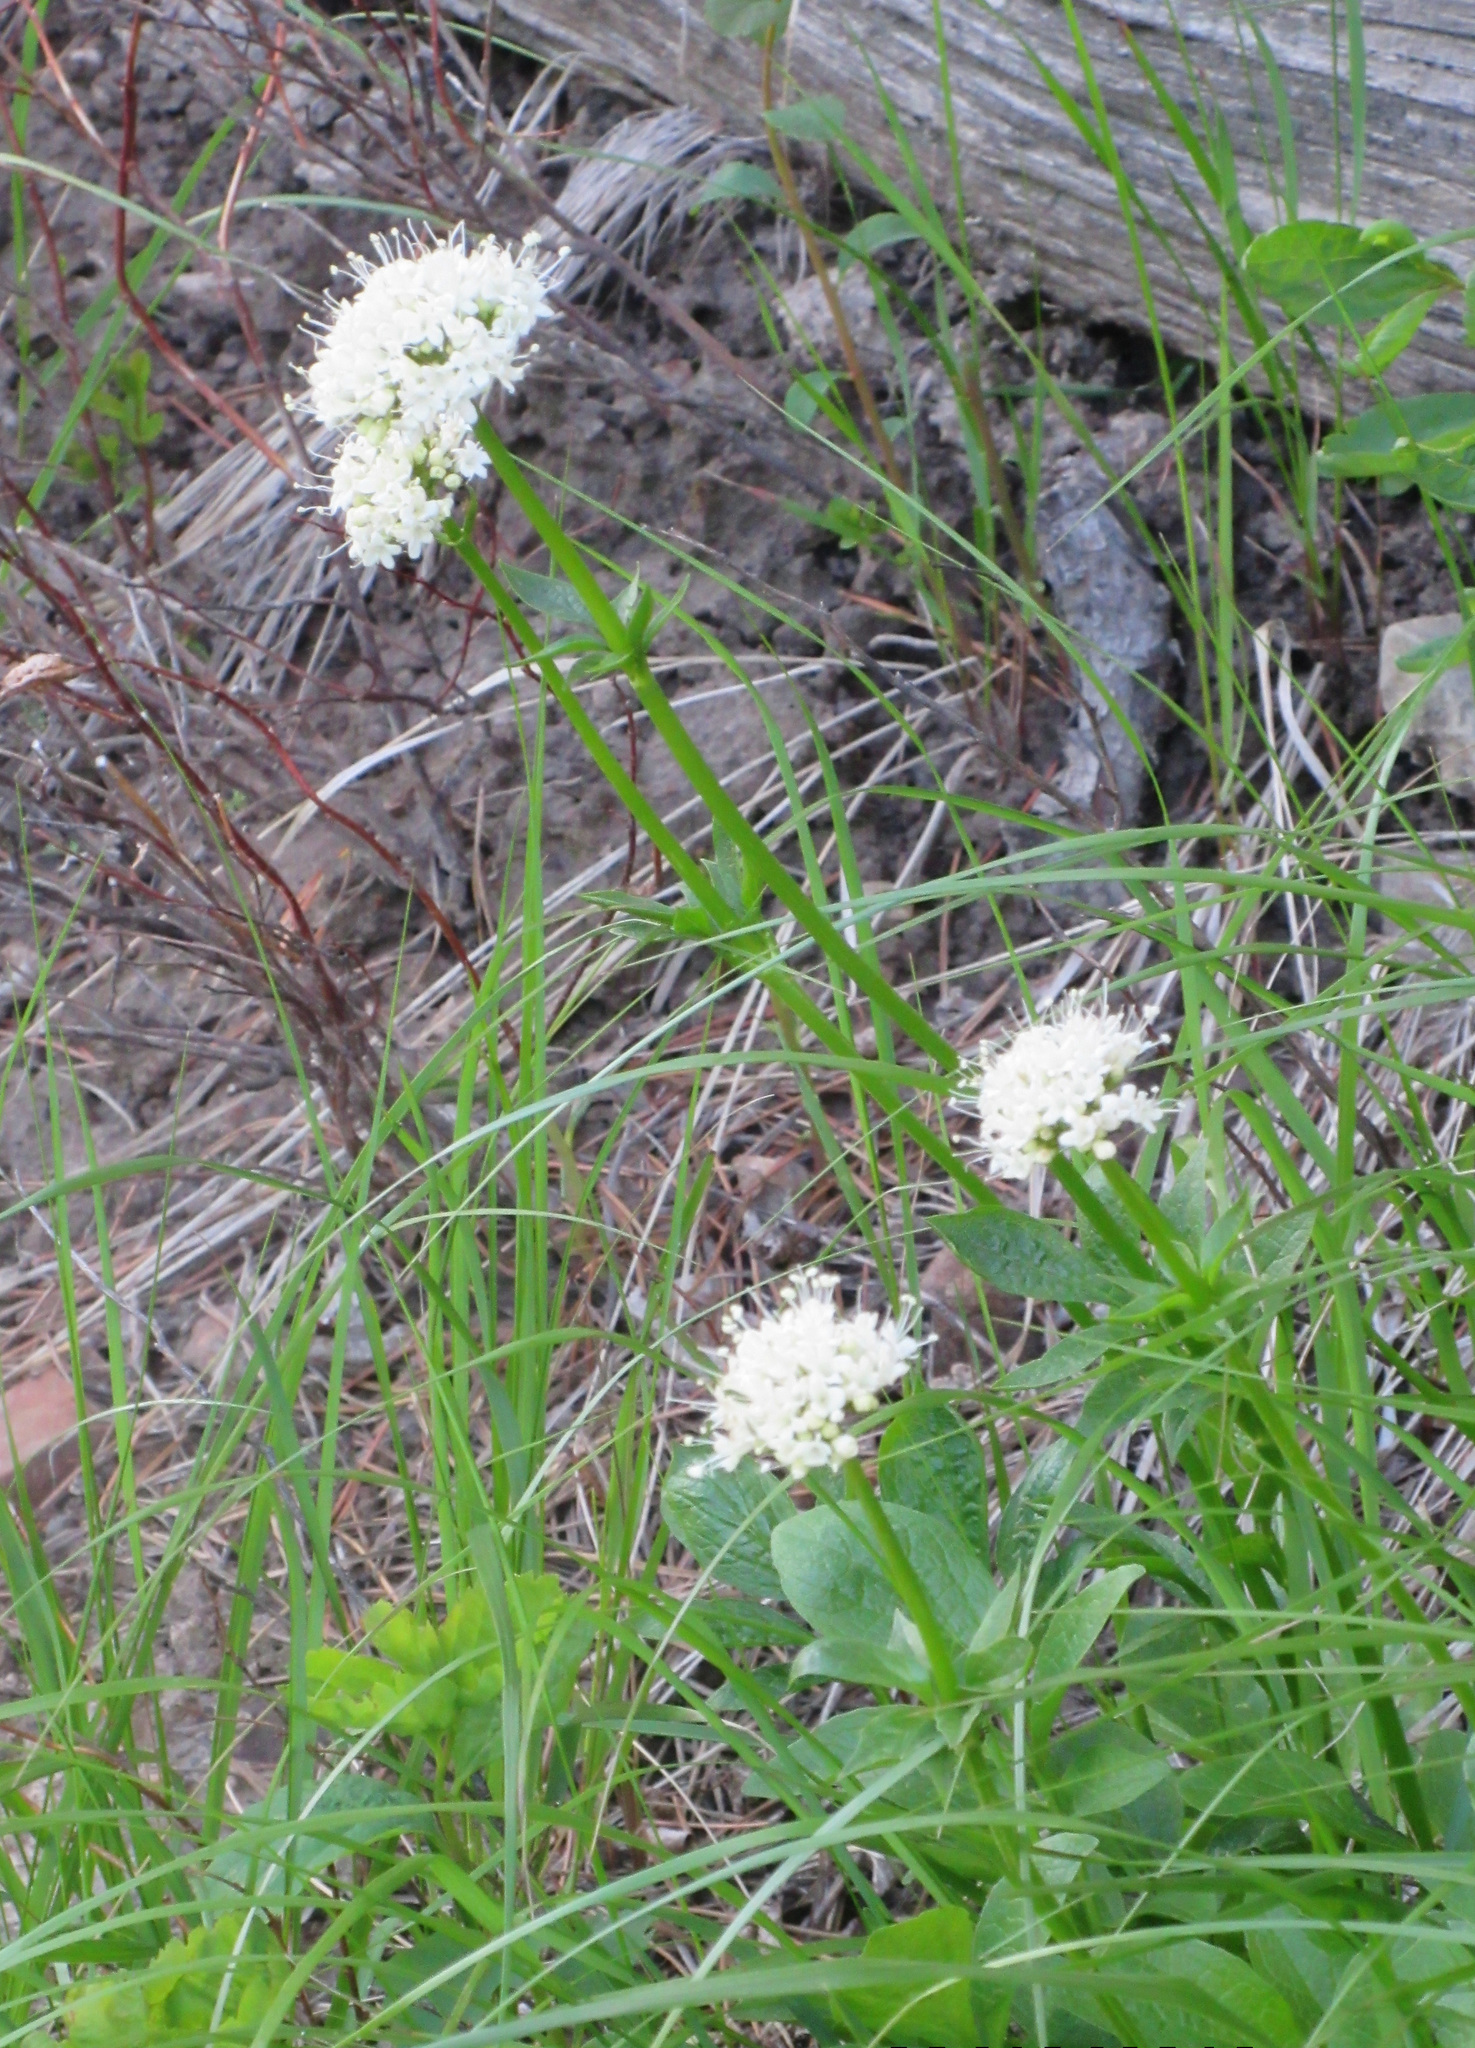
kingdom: Plantae
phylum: Tracheophyta
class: Magnoliopsida
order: Dipsacales
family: Caprifoliaceae
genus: Valeriana
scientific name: Valeriana sitchensis
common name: Pacific valerian
